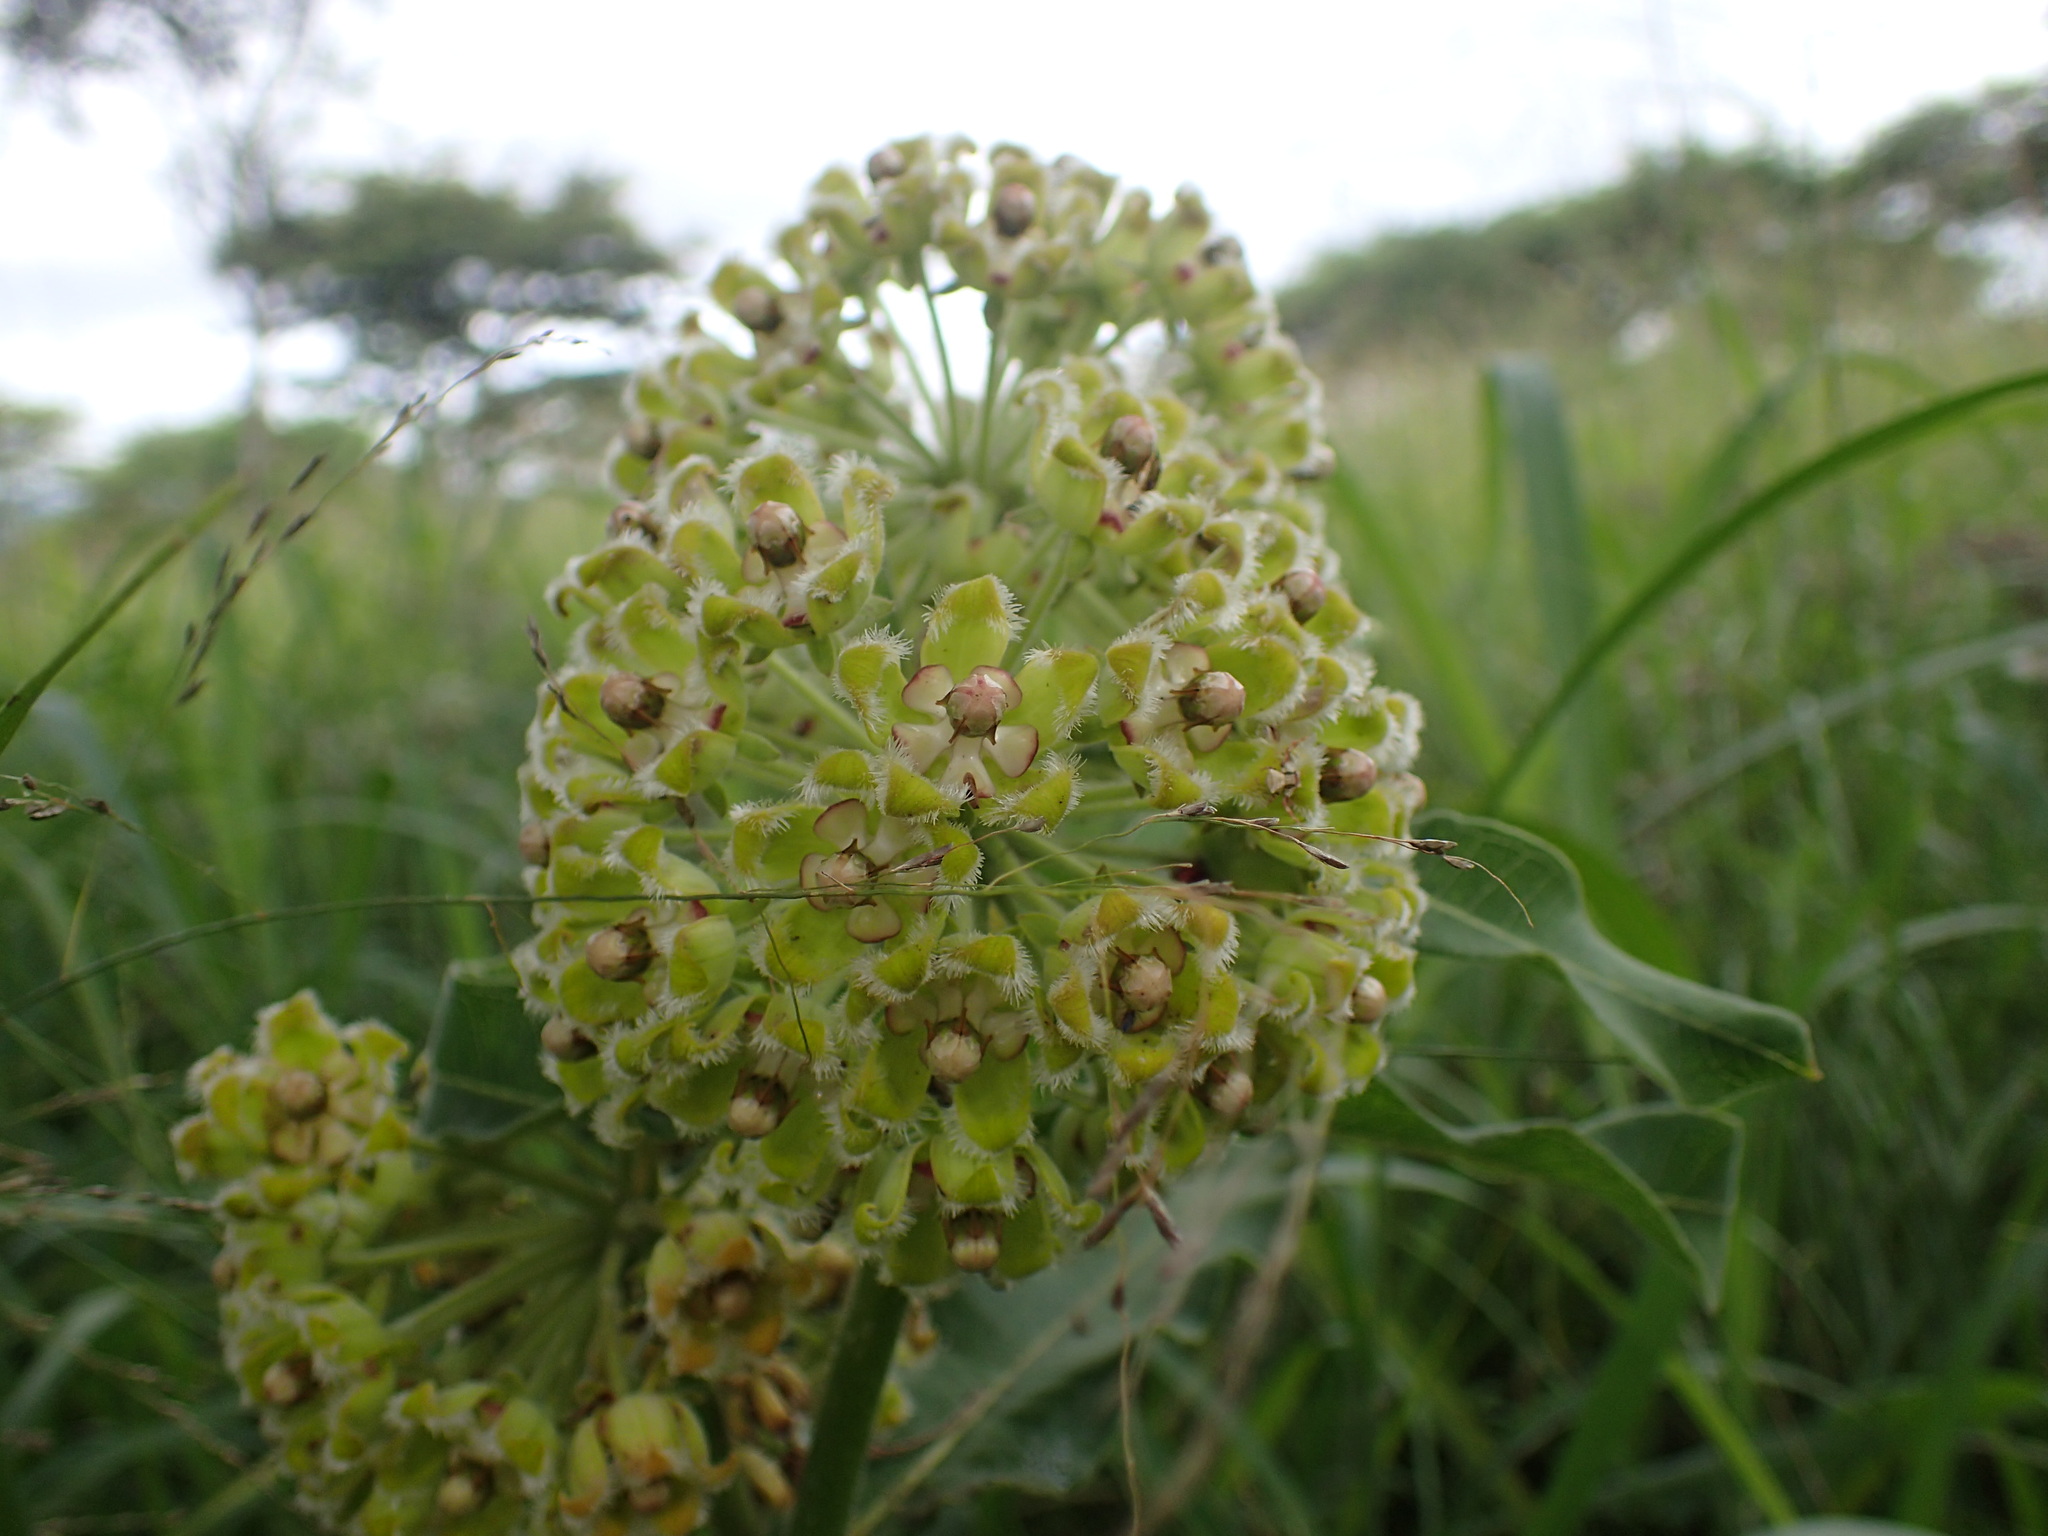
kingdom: Plantae
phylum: Tracheophyta
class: Magnoliopsida
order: Gentianales
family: Apocynaceae
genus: Xysmalobium
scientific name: Xysmalobium undulatum
